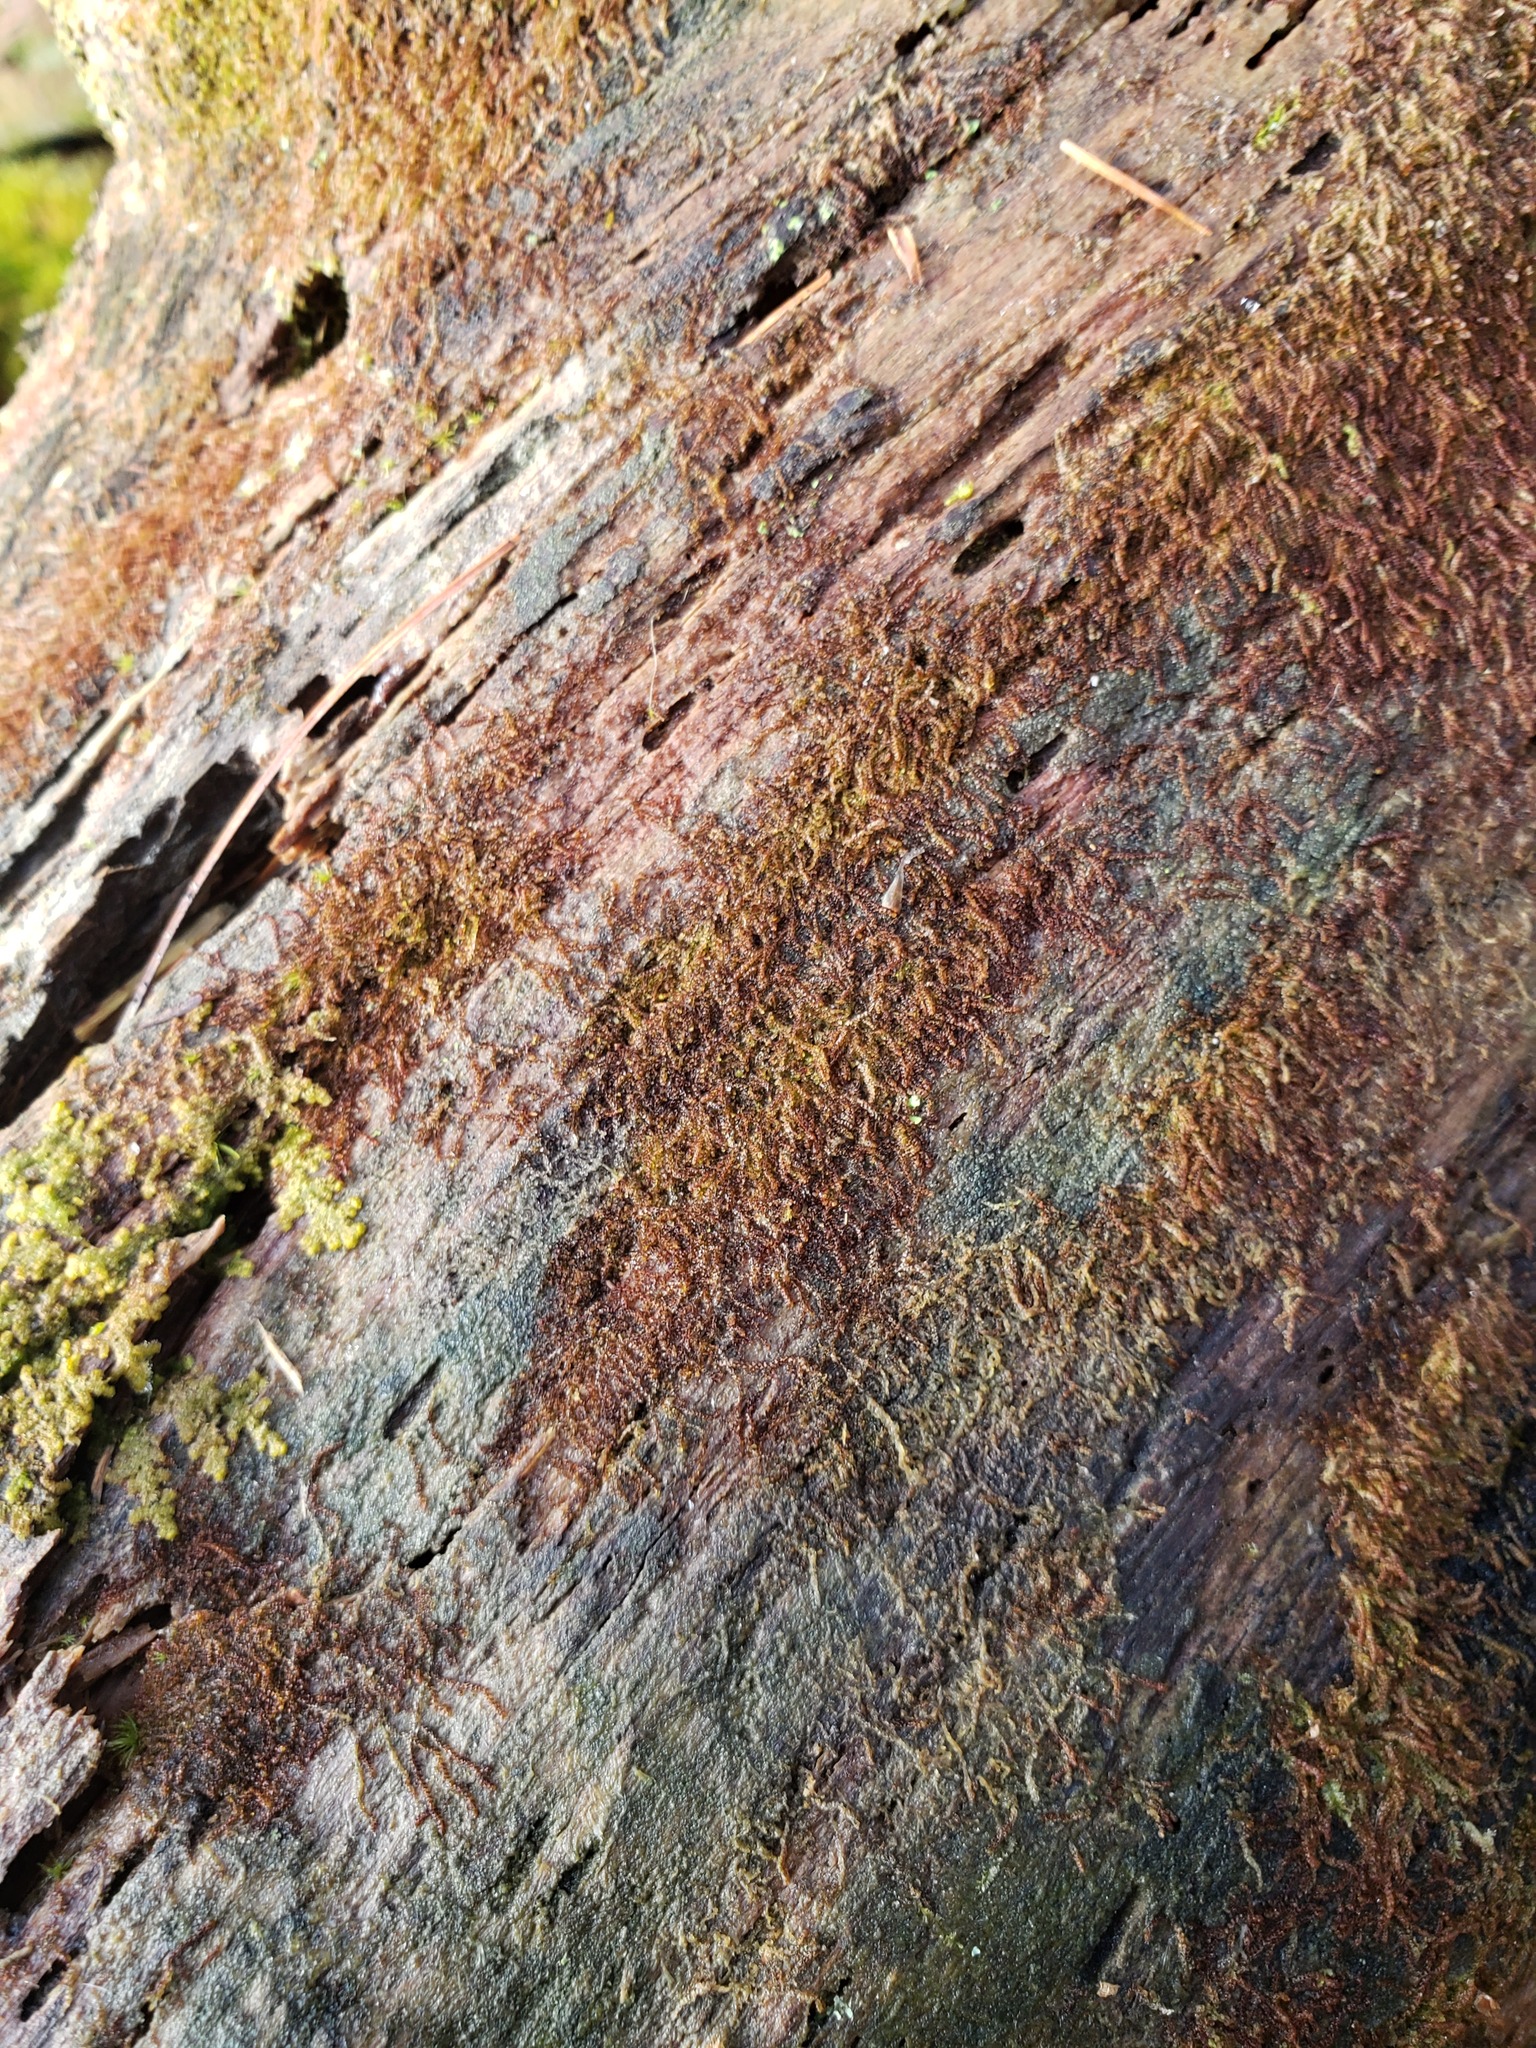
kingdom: Plantae
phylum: Marchantiophyta
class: Jungermanniopsida
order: Jungermanniales
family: Cephaloziaceae
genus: Nowellia
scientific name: Nowellia curvifolia
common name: Wood rustwort
